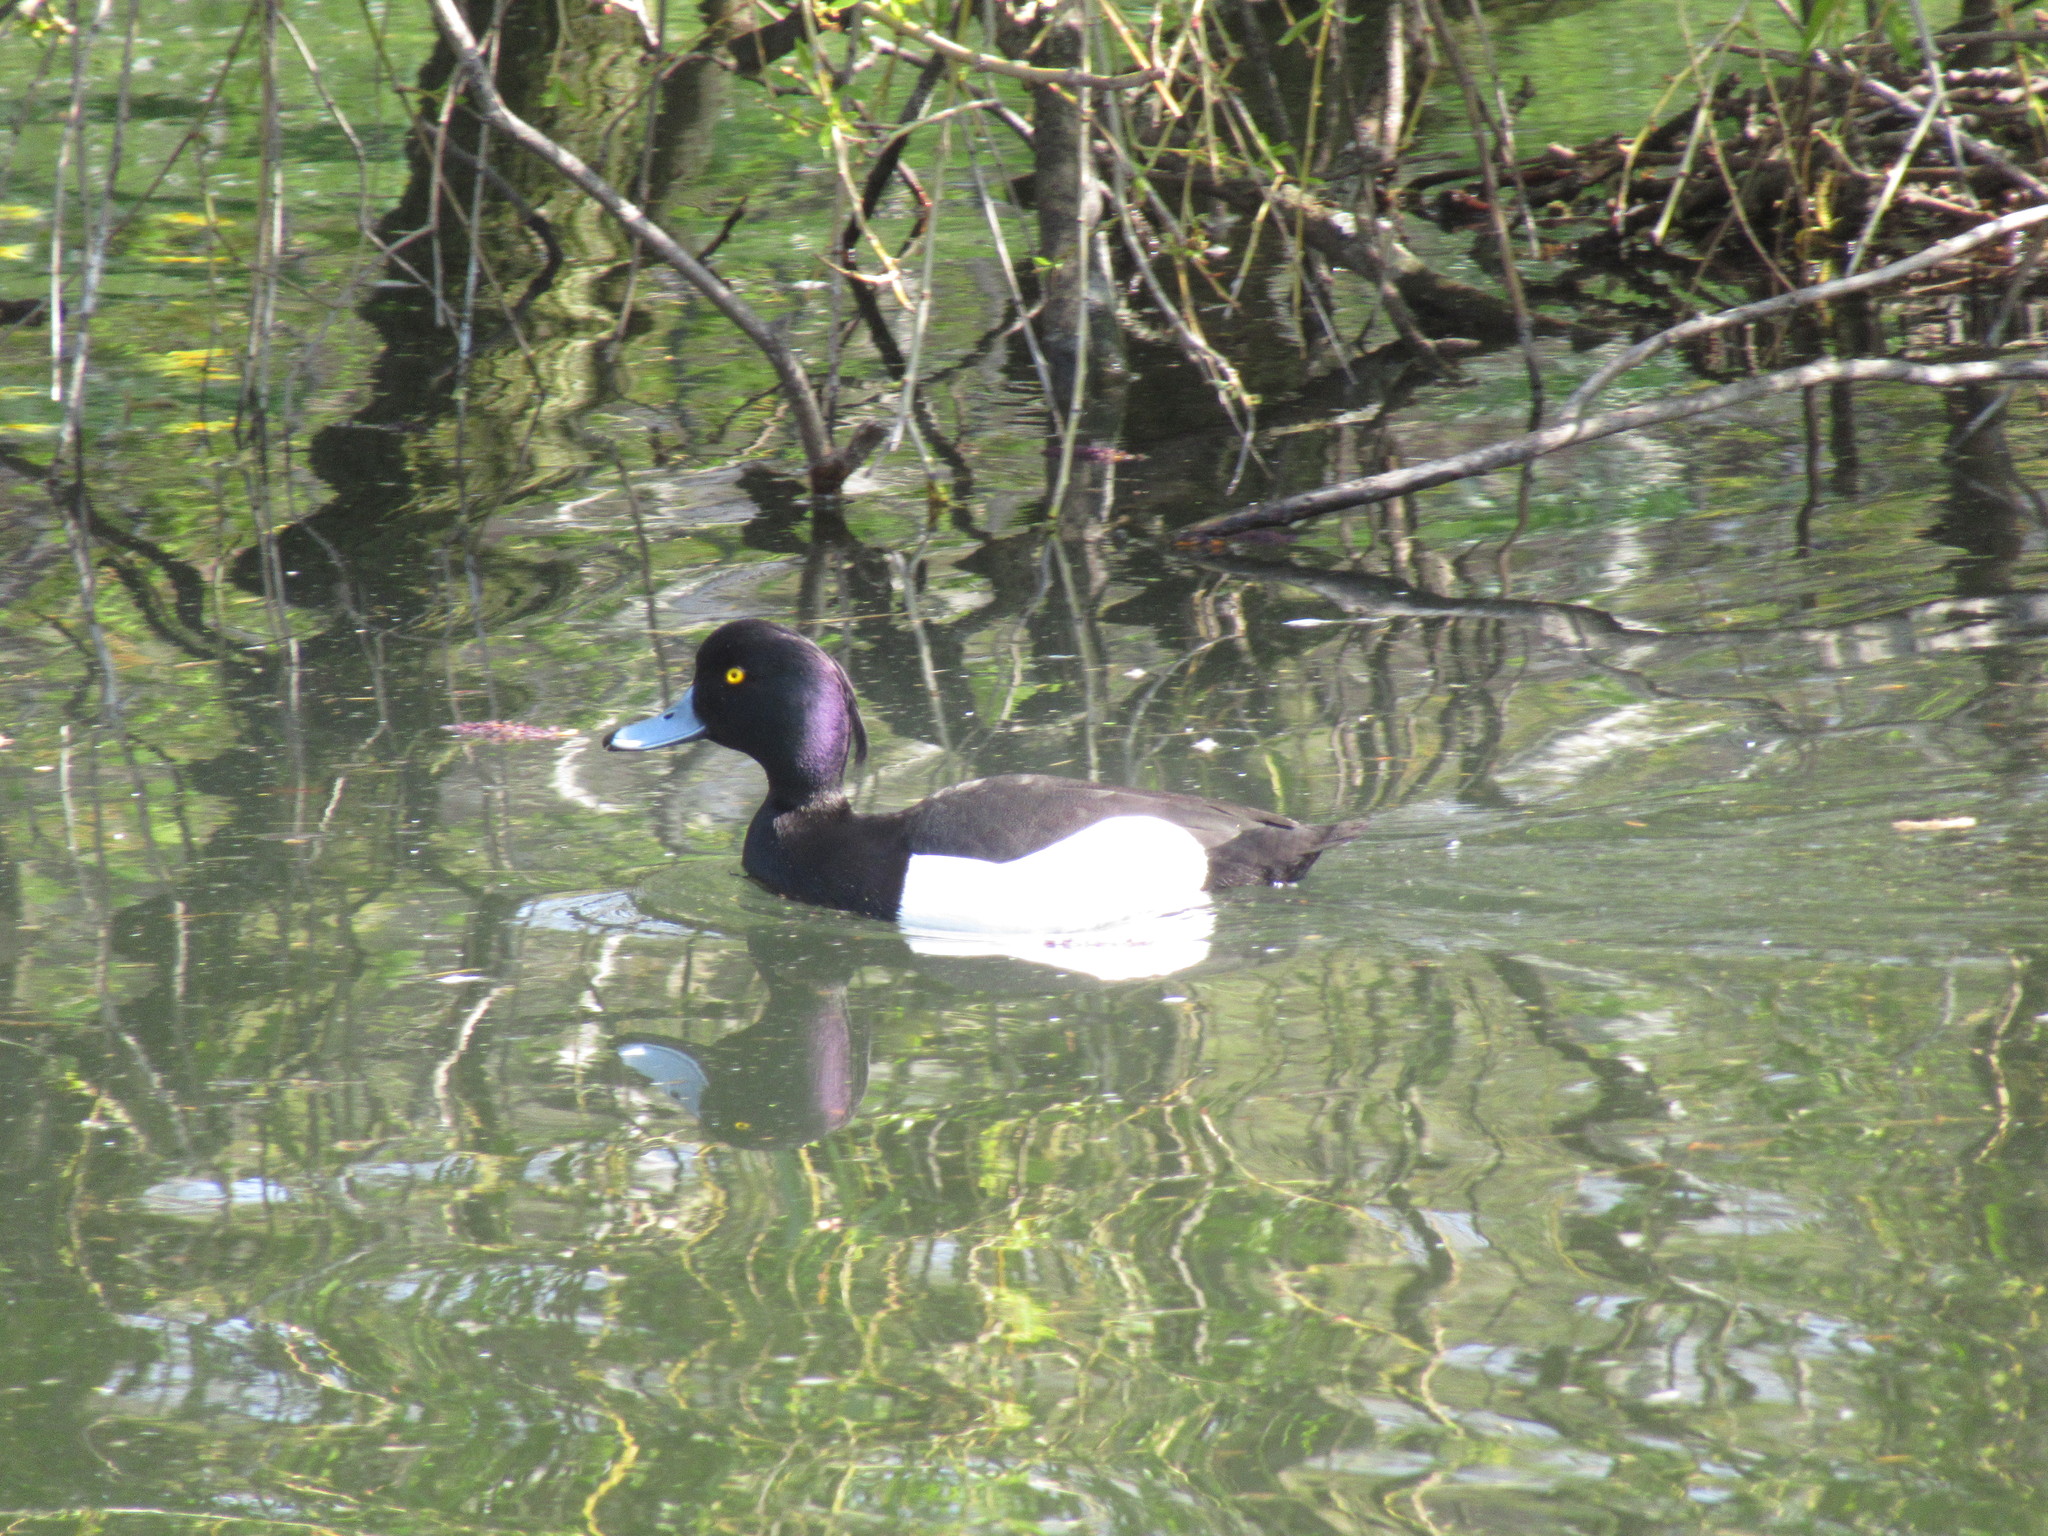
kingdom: Animalia
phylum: Chordata
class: Aves
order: Anseriformes
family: Anatidae
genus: Aythya
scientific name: Aythya fuligula
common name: Tufted duck
